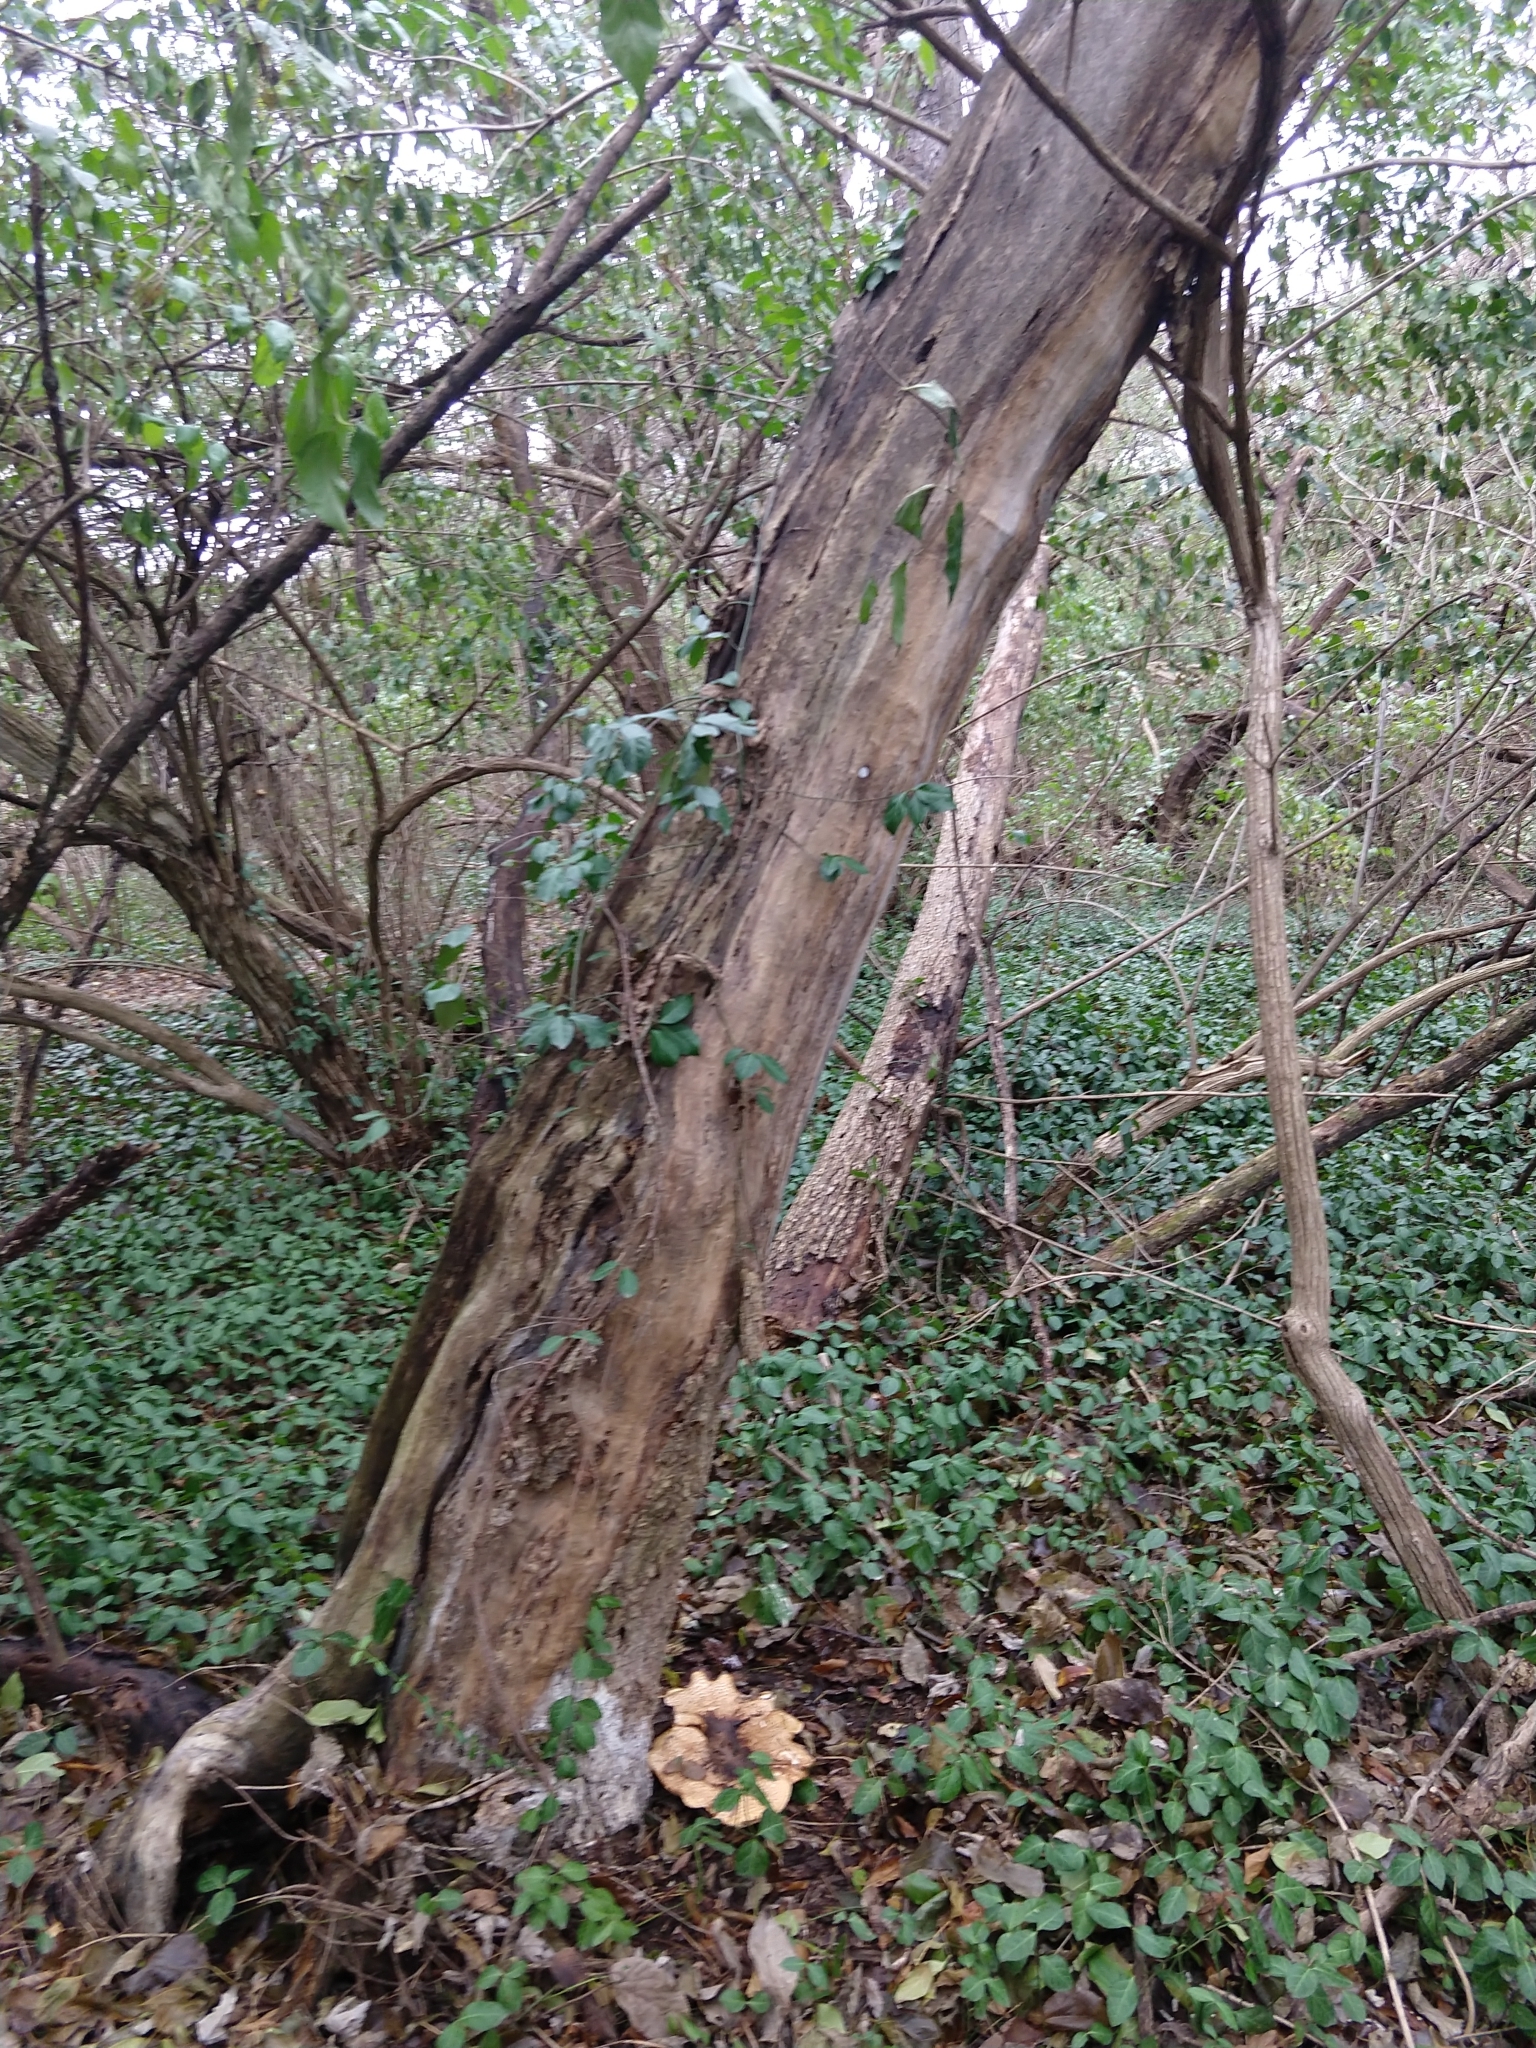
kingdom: Fungi
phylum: Basidiomycota
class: Agaricomycetes
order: Polyporales
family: Polyporaceae
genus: Cerioporus
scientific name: Cerioporus squamosus
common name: Dryad's saddle
